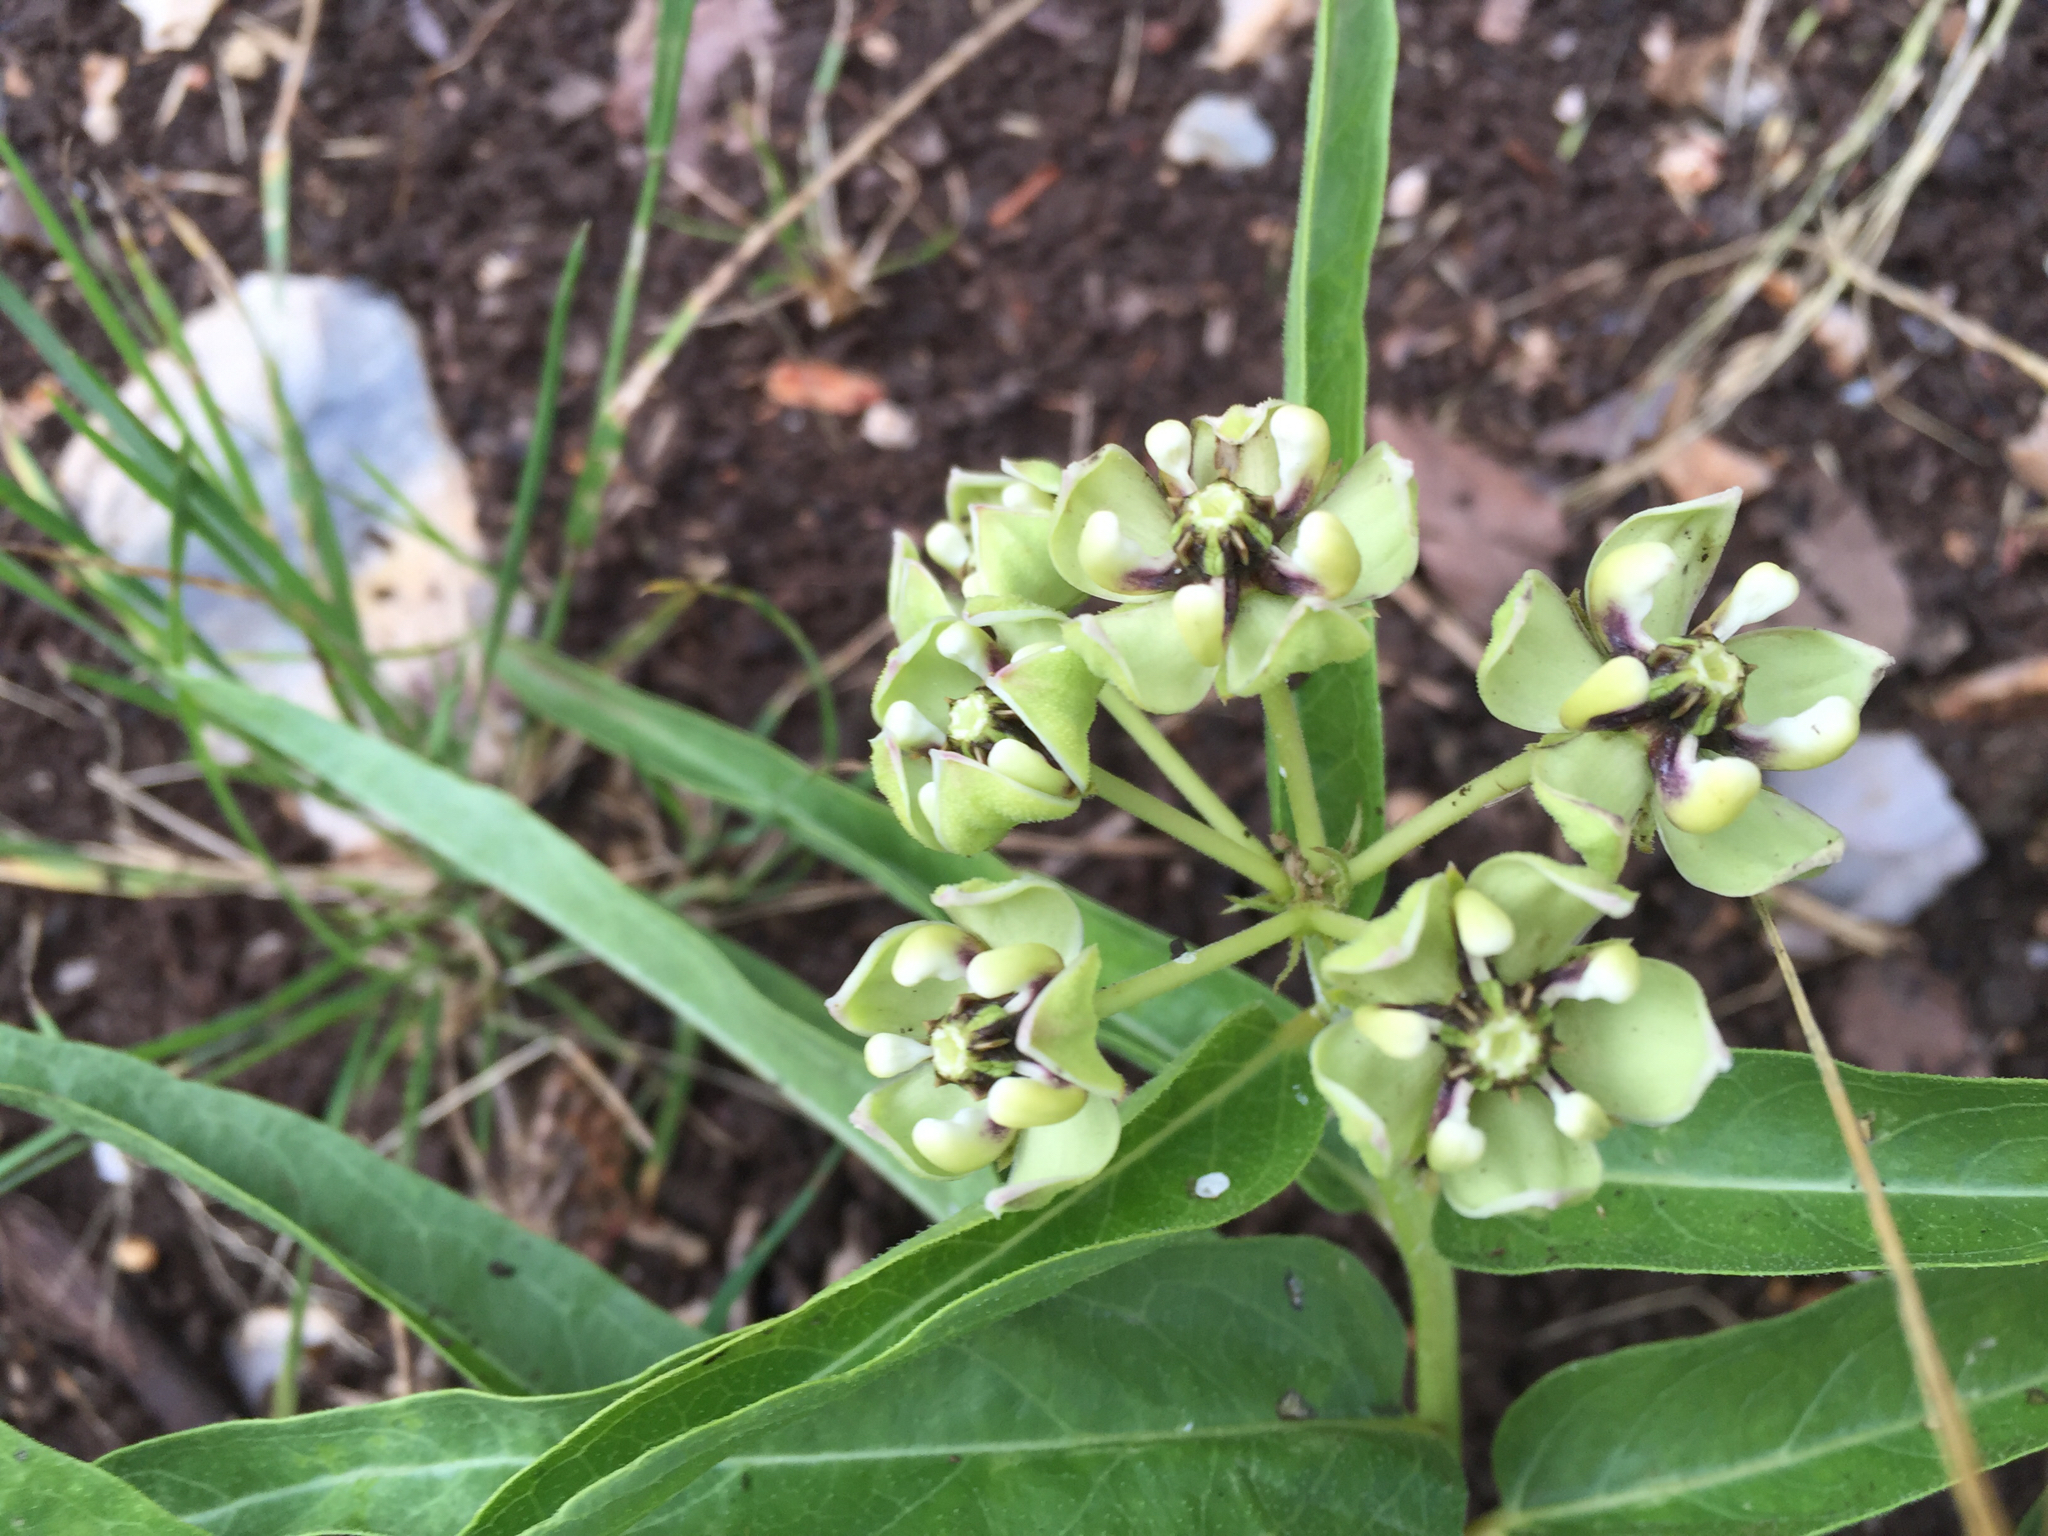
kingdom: Plantae
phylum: Tracheophyta
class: Magnoliopsida
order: Gentianales
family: Apocynaceae
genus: Asclepias
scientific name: Asclepias asperula
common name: Antelope horns
